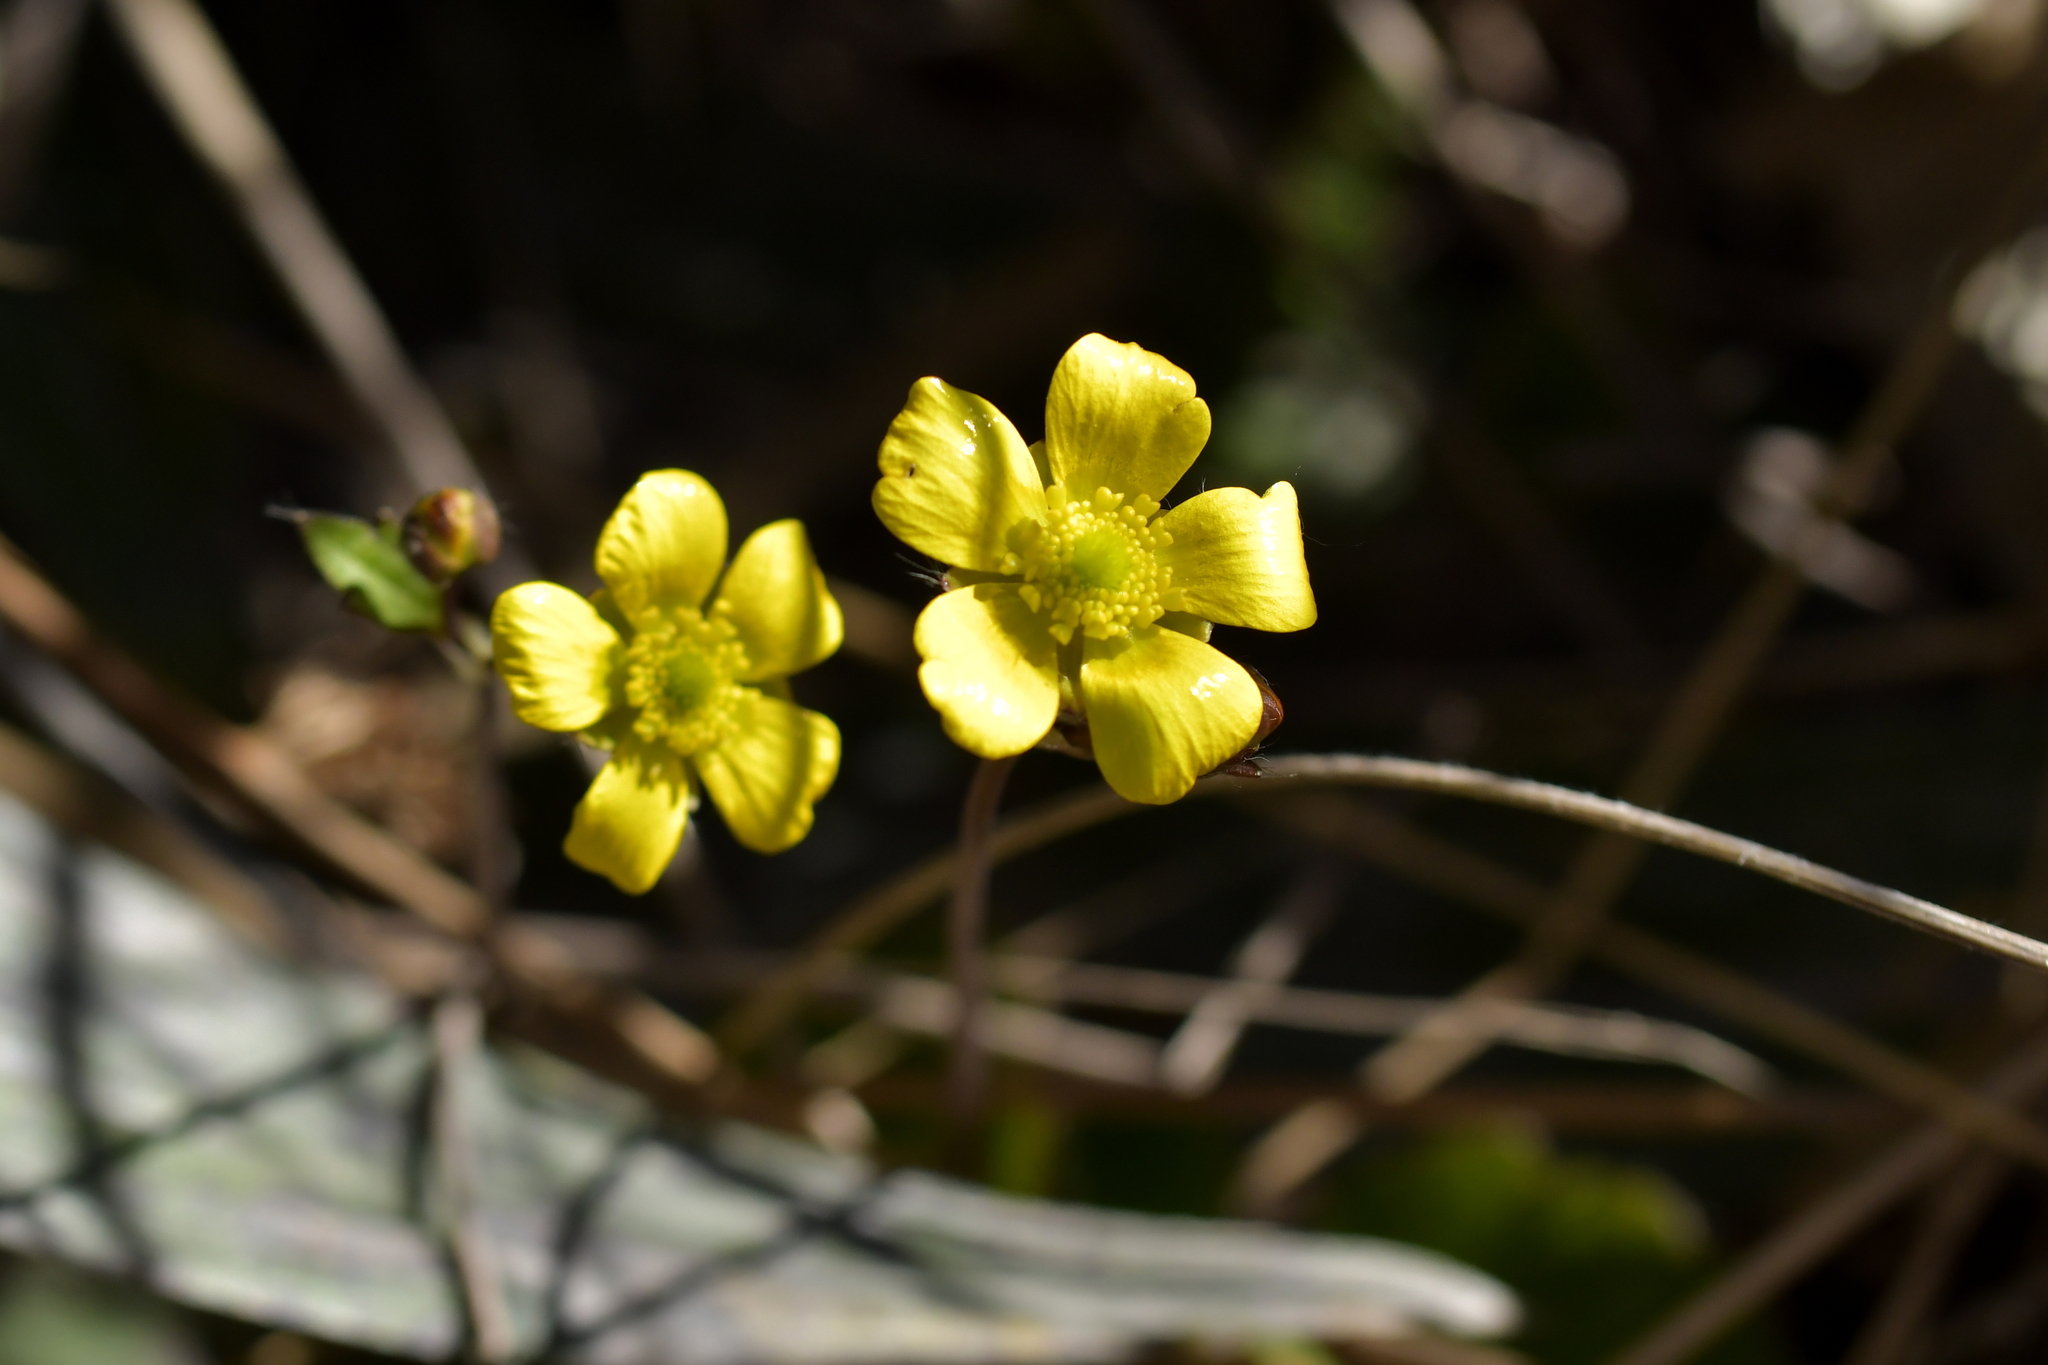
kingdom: Plantae
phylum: Tracheophyta
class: Magnoliopsida
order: Ranunculales
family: Ranunculaceae
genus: Ranunculus
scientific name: Ranunculus insignis
